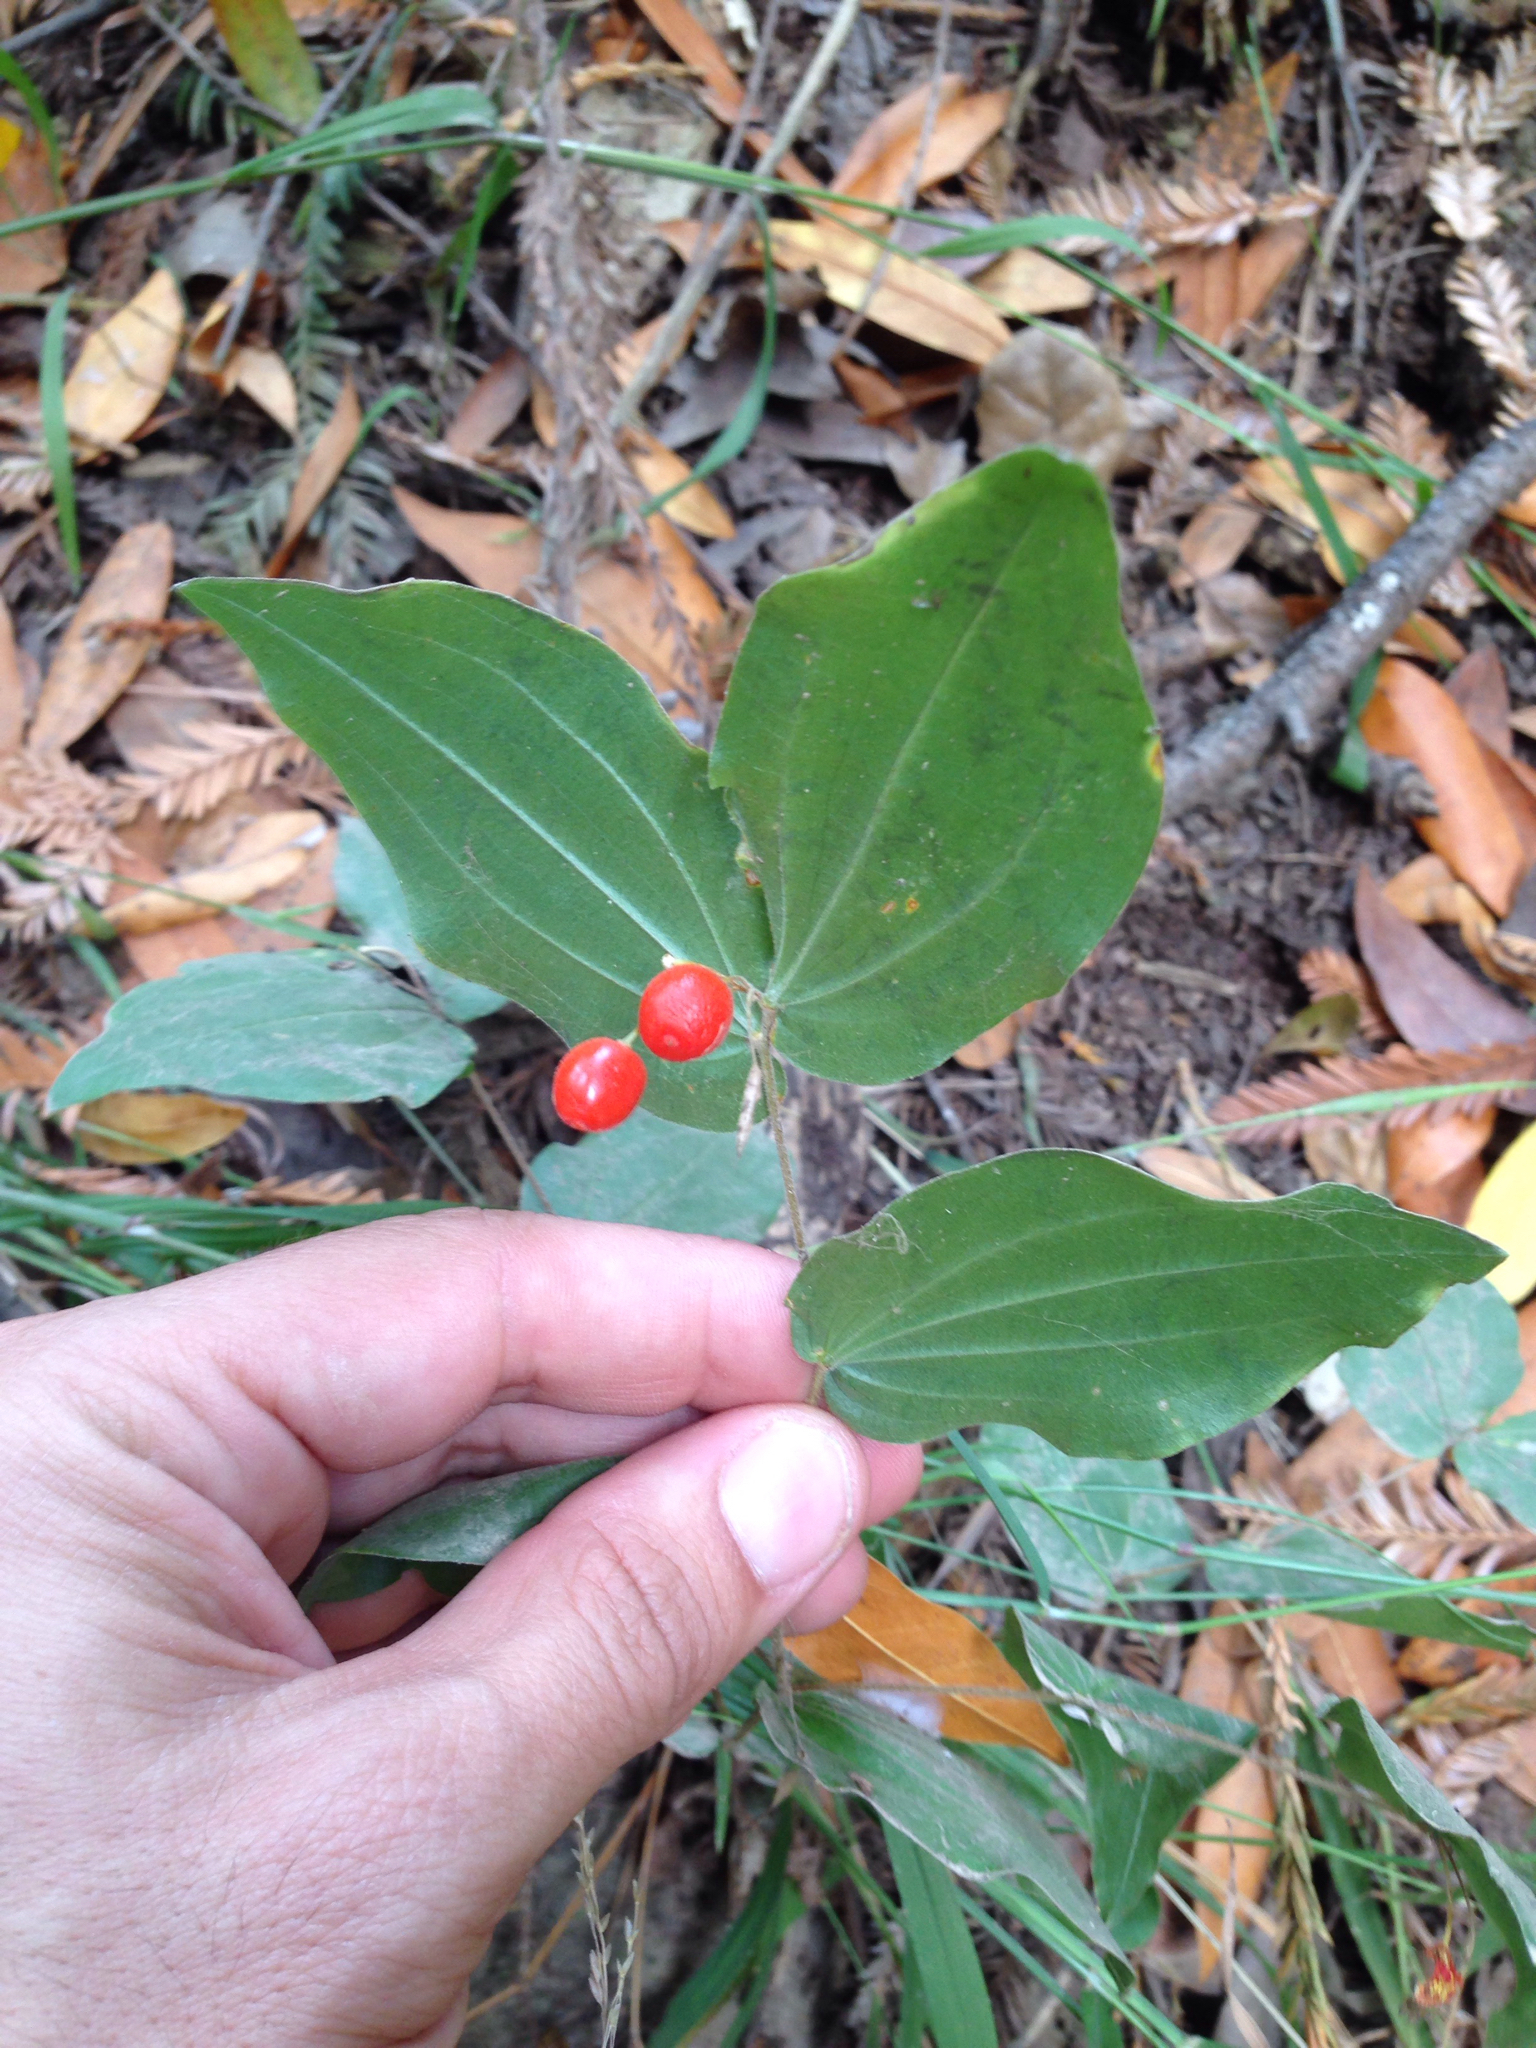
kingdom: Plantae
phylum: Tracheophyta
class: Liliopsida
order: Liliales
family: Liliaceae
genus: Prosartes
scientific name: Prosartes hookeri
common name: Fairy-bells
